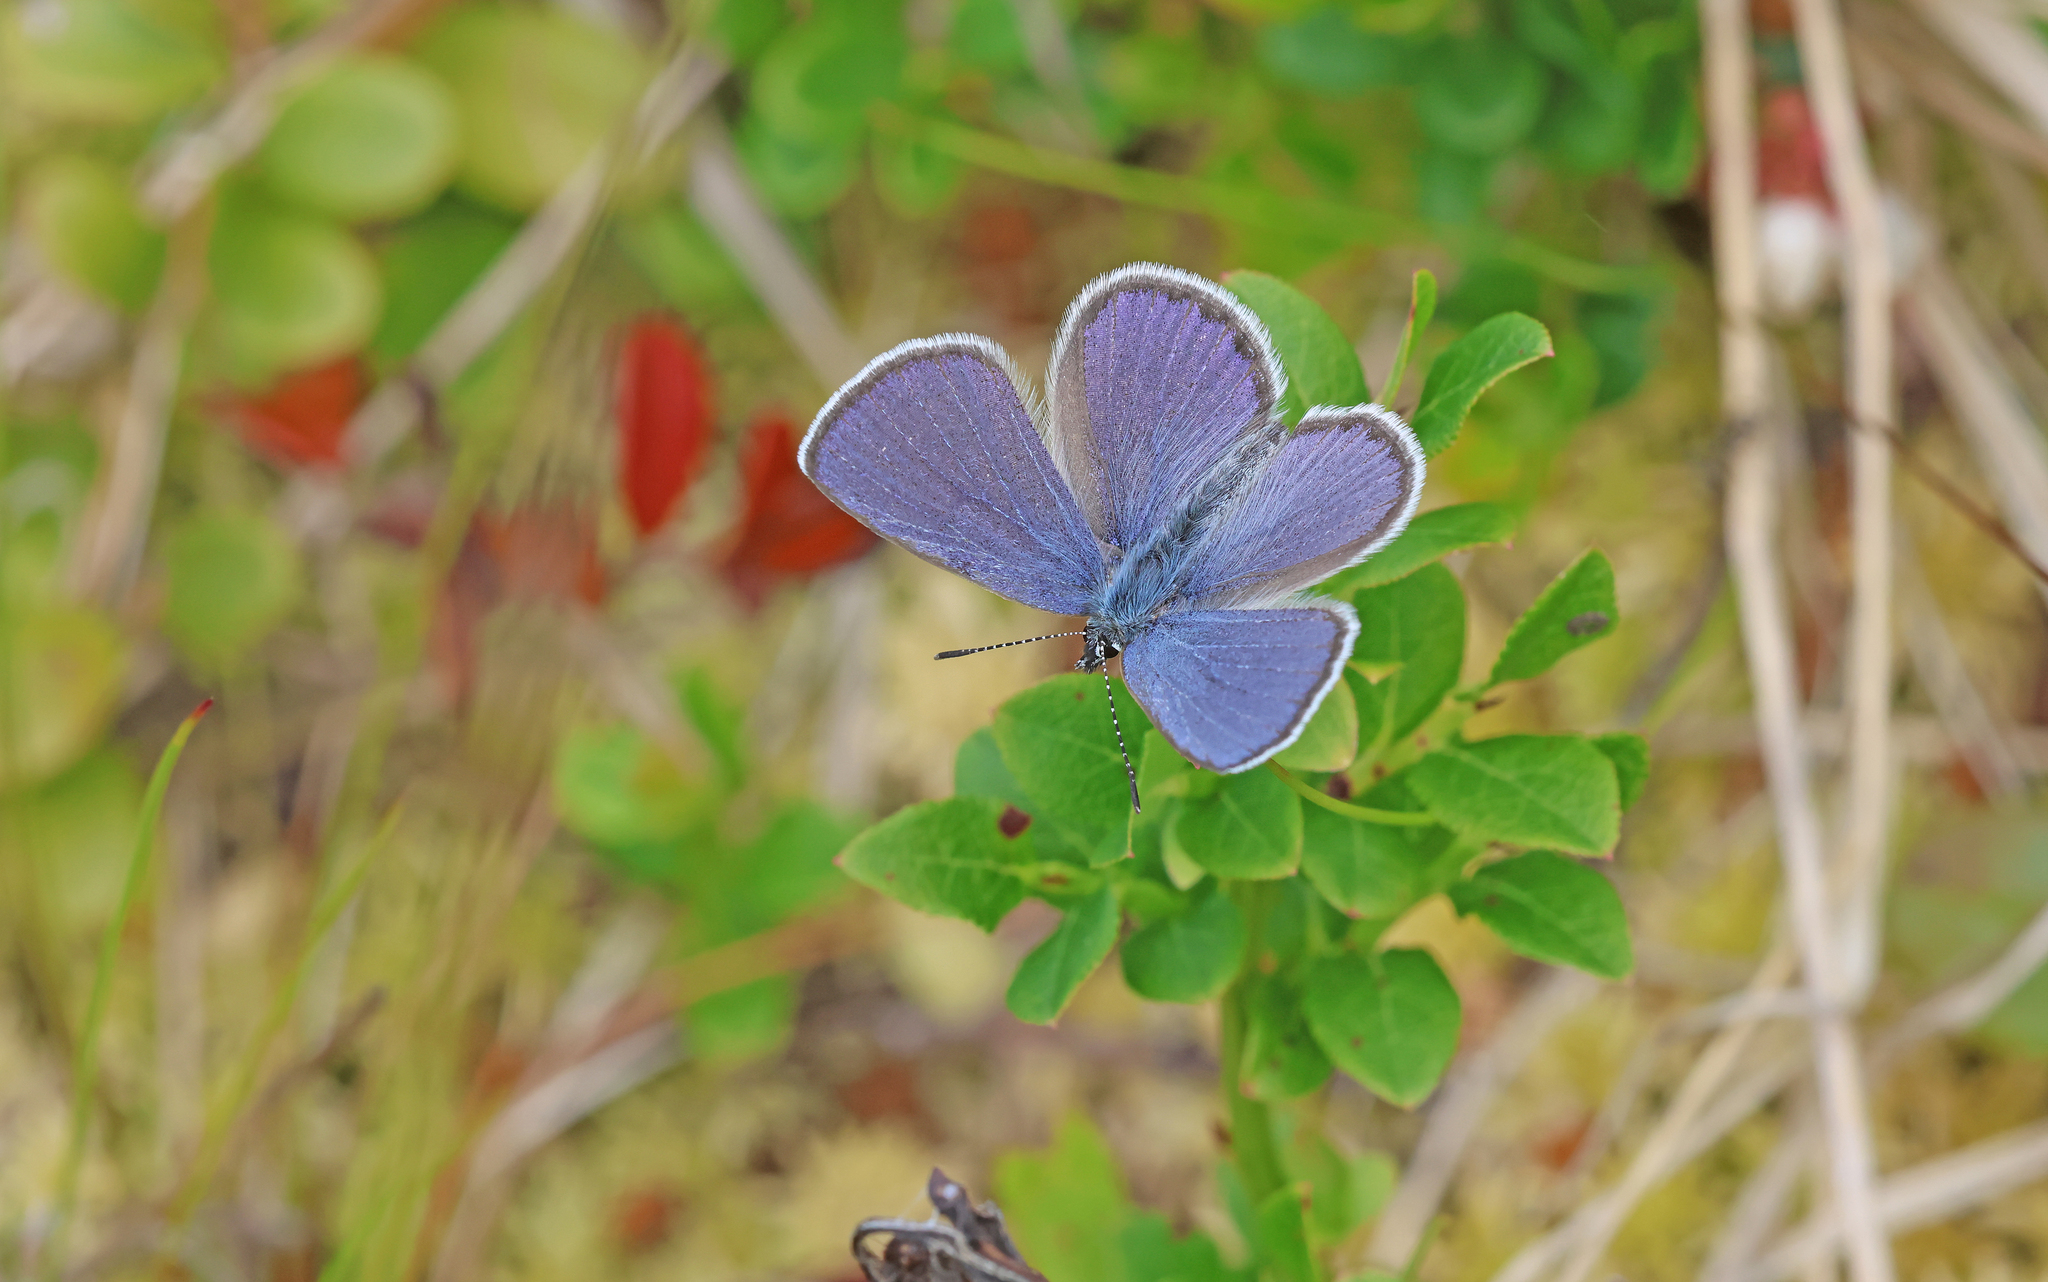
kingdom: Animalia
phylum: Arthropoda
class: Insecta
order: Lepidoptera
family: Lycaenidae
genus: Vacciniina
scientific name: Vacciniina optilete
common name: Cranberry blue
